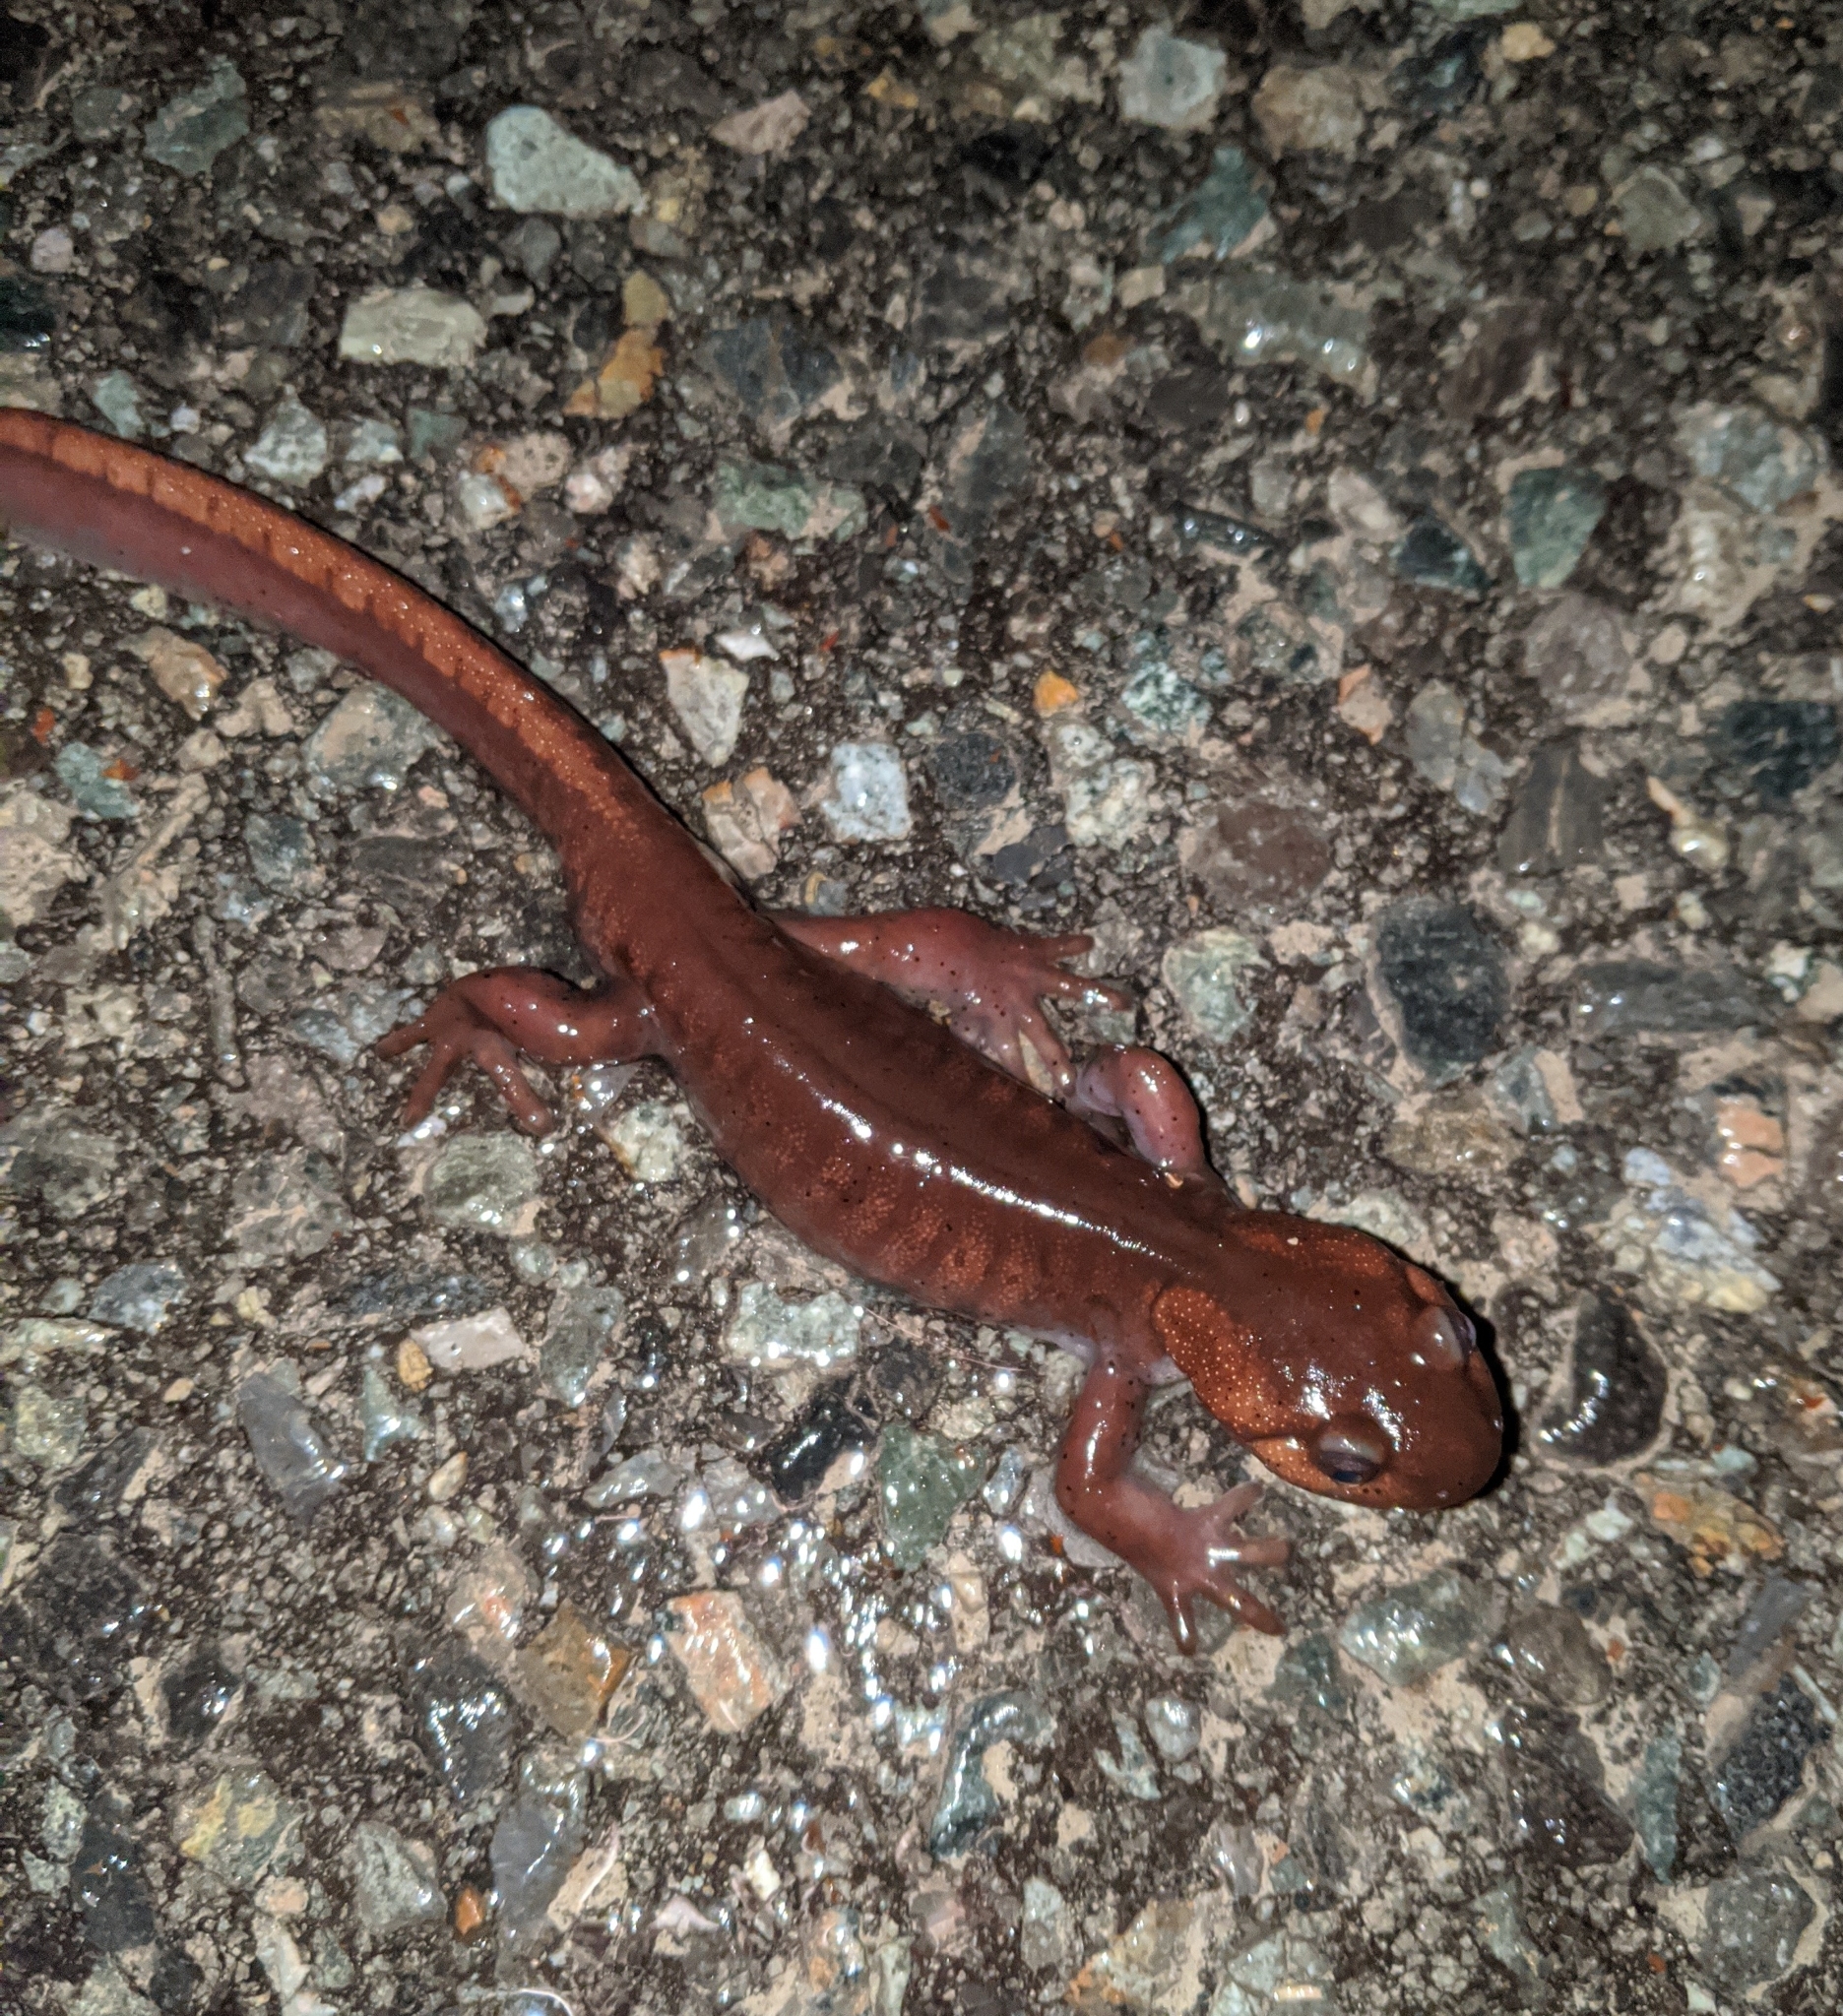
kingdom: Animalia
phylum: Chordata
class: Amphibia
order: Caudata
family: Ambystomatidae
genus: Ambystoma
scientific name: Ambystoma gracile
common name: Northwestern salamander
